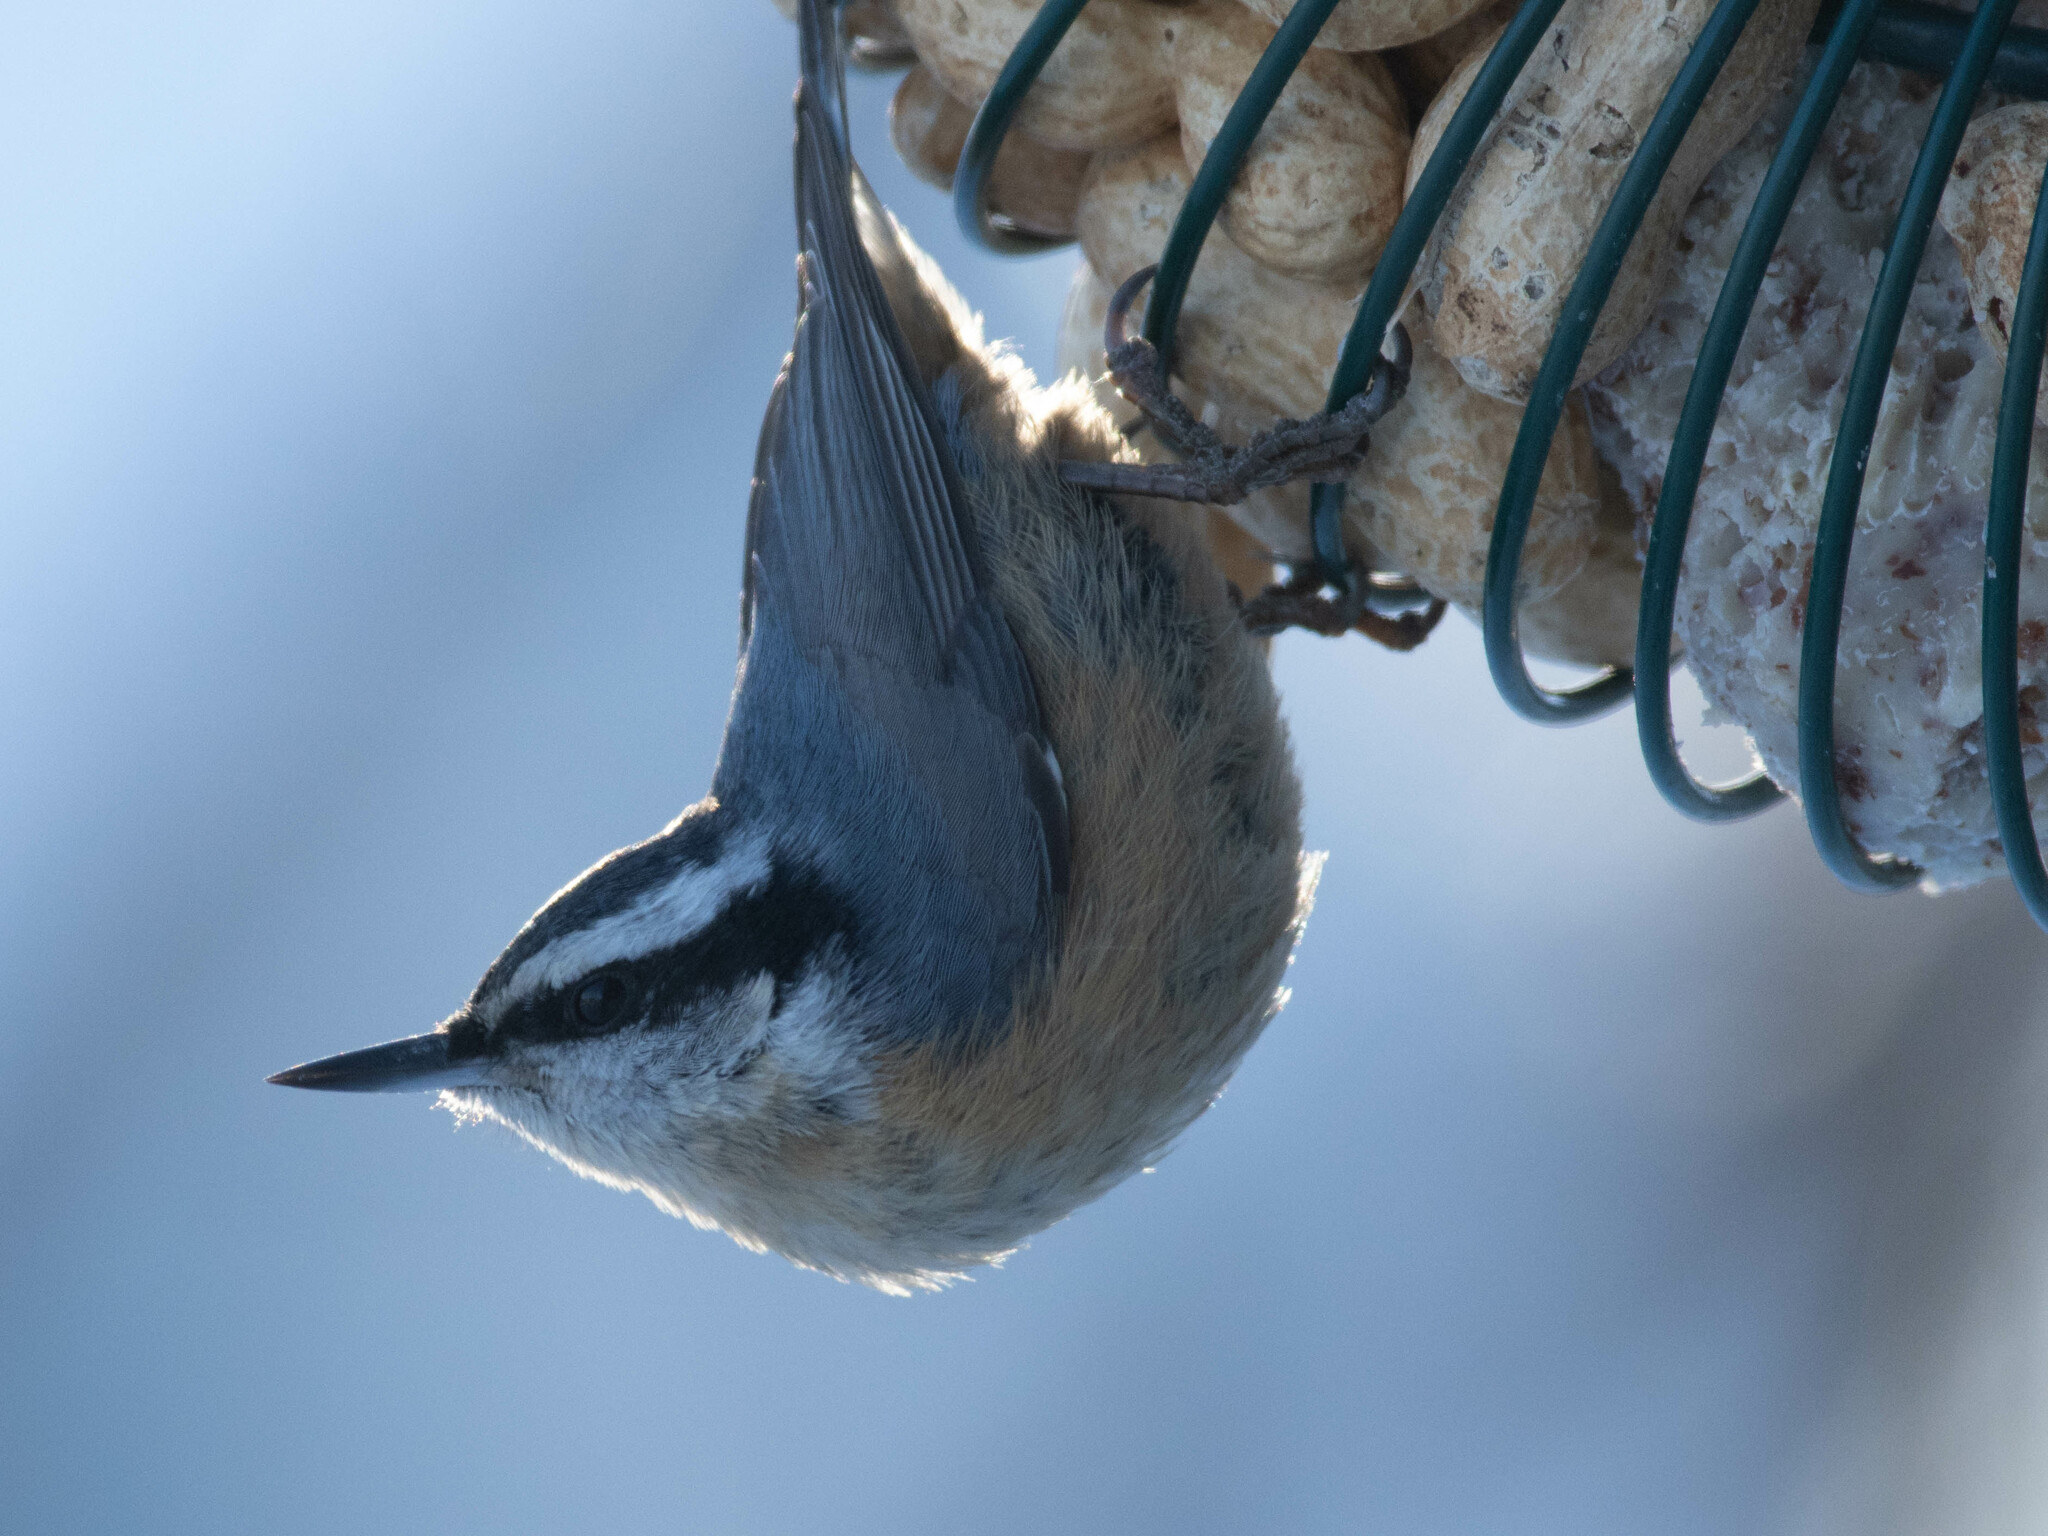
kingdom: Animalia
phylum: Chordata
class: Aves
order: Passeriformes
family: Sittidae
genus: Sitta
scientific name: Sitta canadensis
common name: Red-breasted nuthatch
